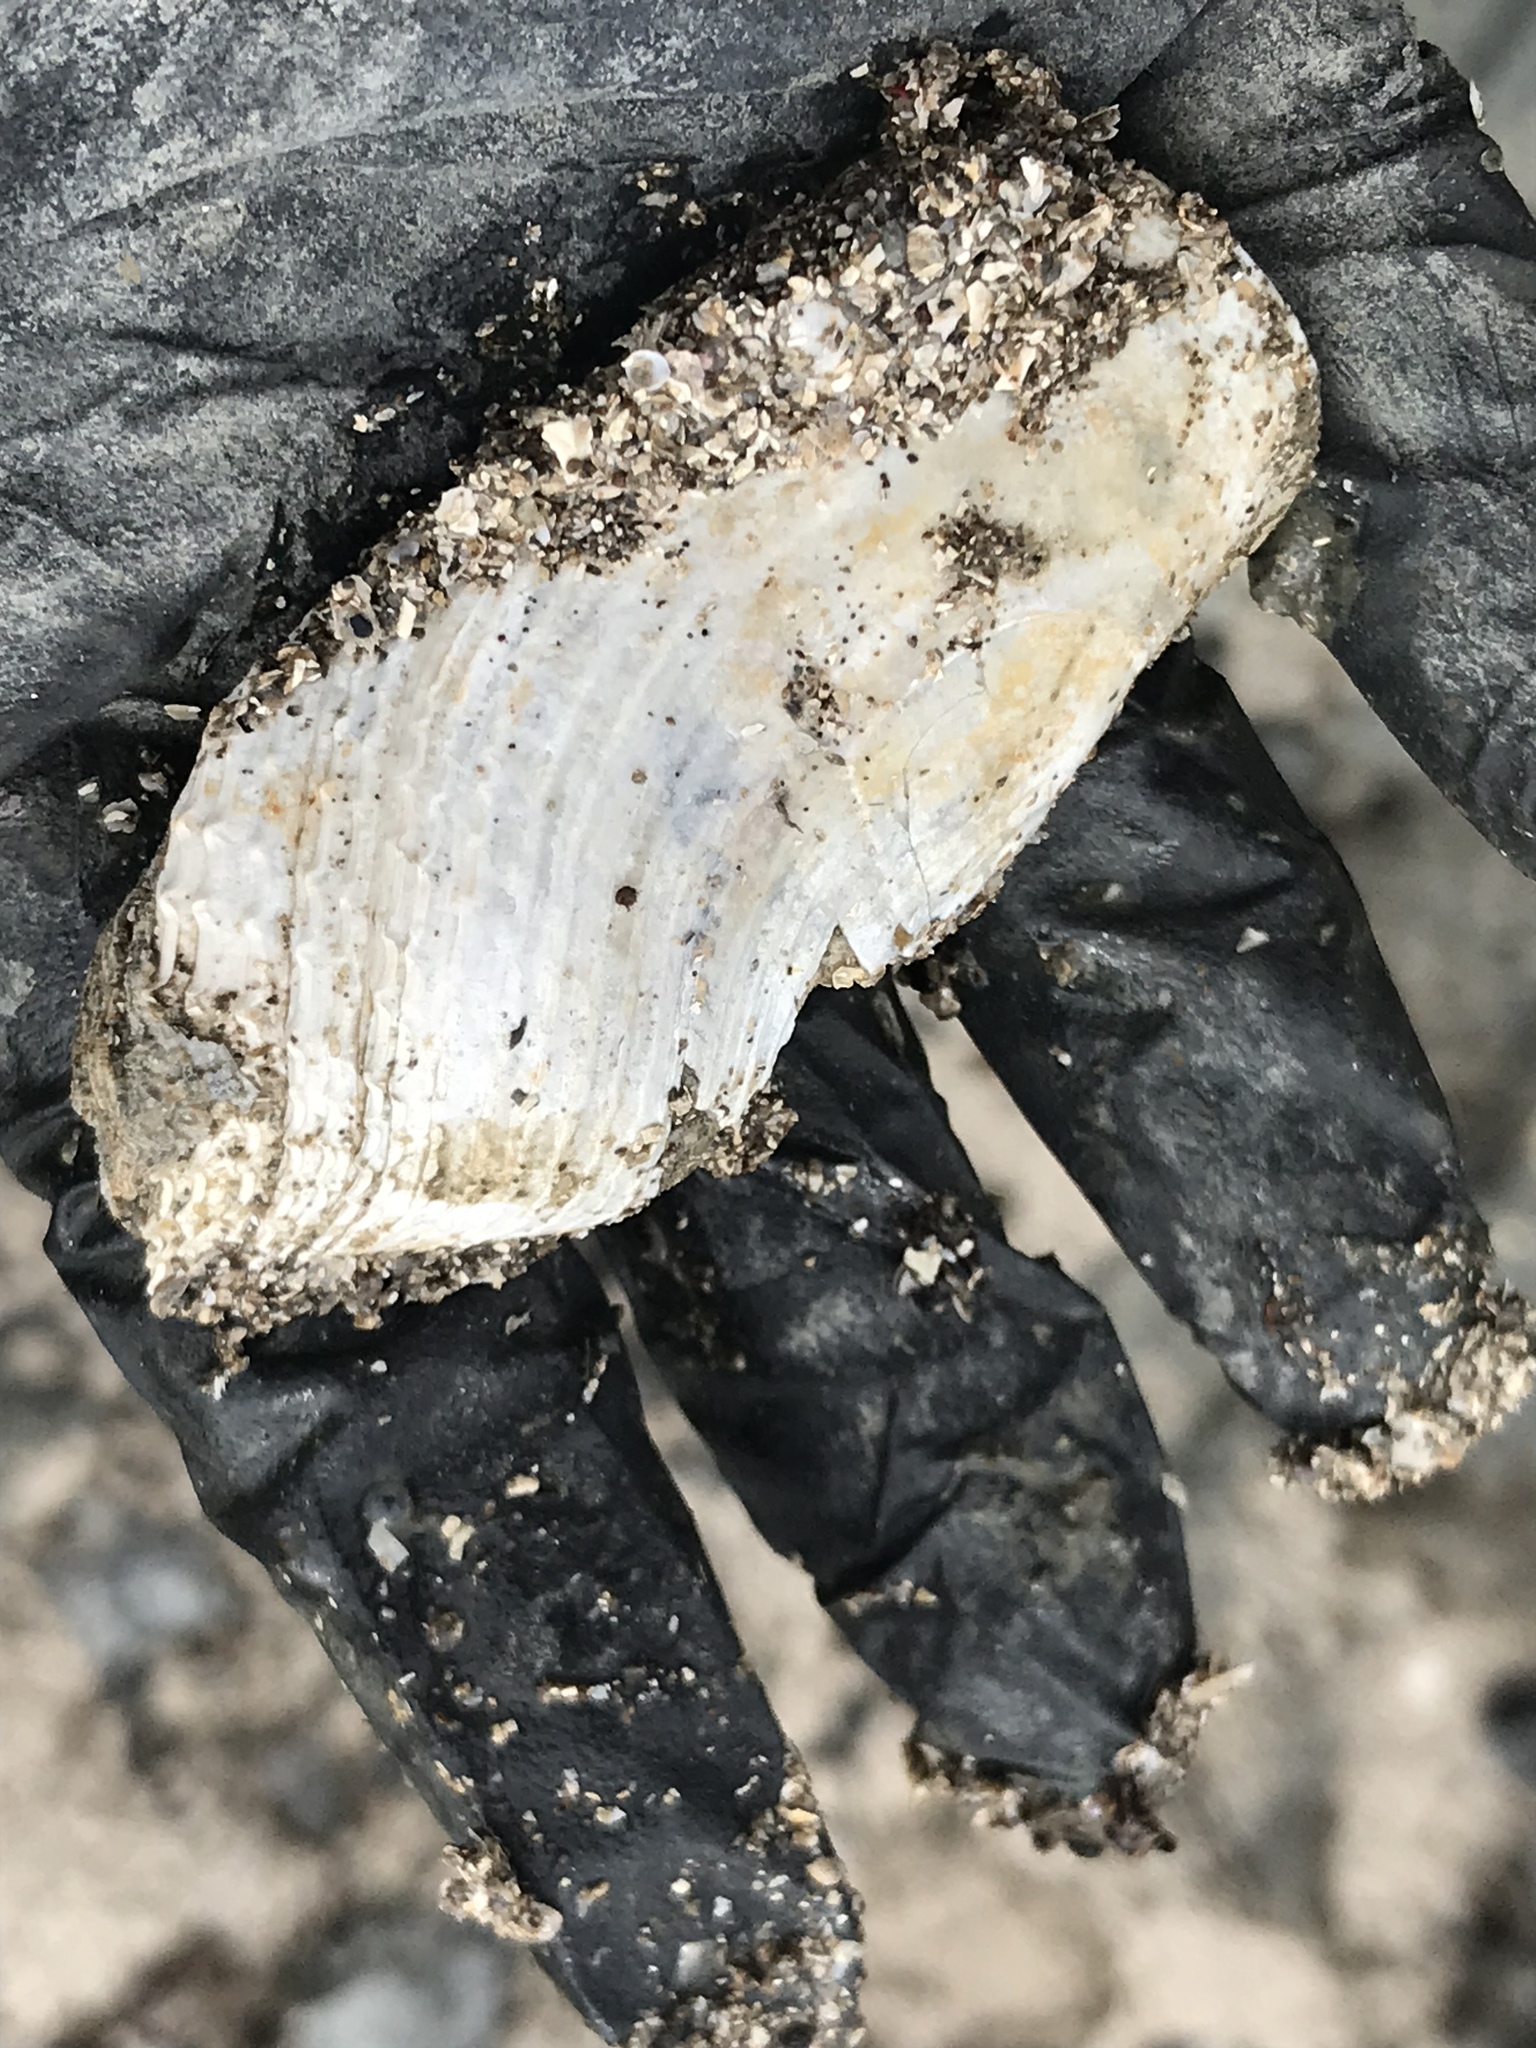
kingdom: Animalia
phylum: Mollusca
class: Bivalvia
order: Myida
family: Pholadidae
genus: Zirfaea
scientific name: Zirfaea pilsbryi
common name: Rough piddock
